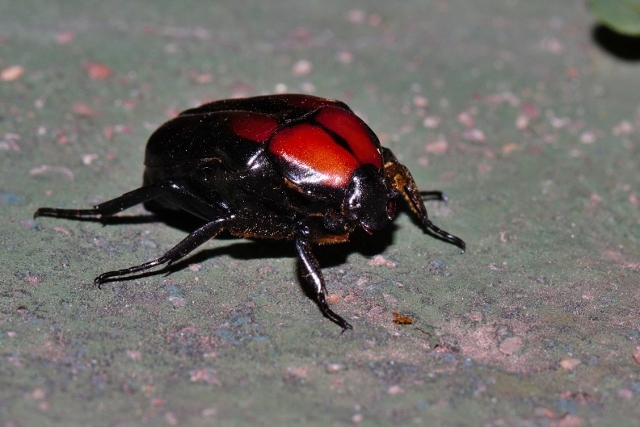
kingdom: Animalia
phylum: Arthropoda
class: Insecta
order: Coleoptera
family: Scarabaeidae
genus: Oplostomus
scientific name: Oplostomus rotundiceps
